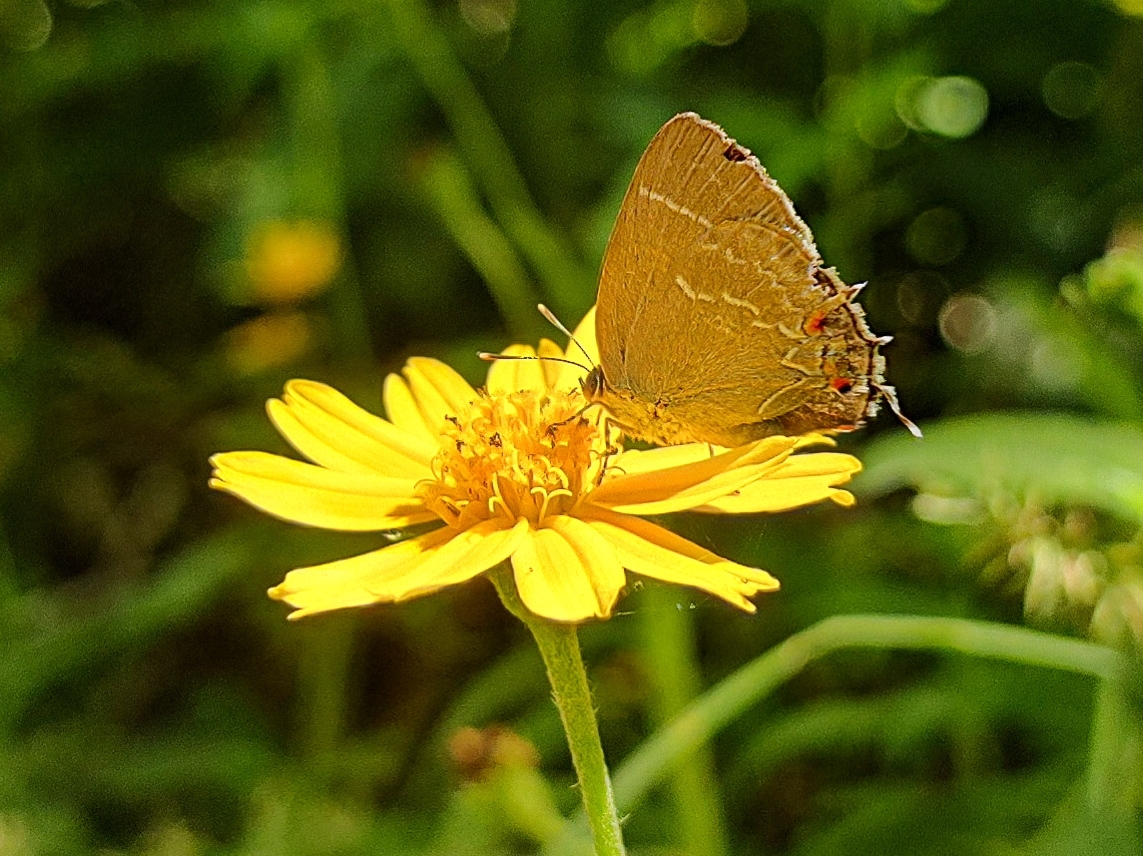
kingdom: Animalia
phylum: Arthropoda
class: Insecta
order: Lepidoptera
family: Lycaenidae
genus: Thecla
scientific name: Thecla imma
